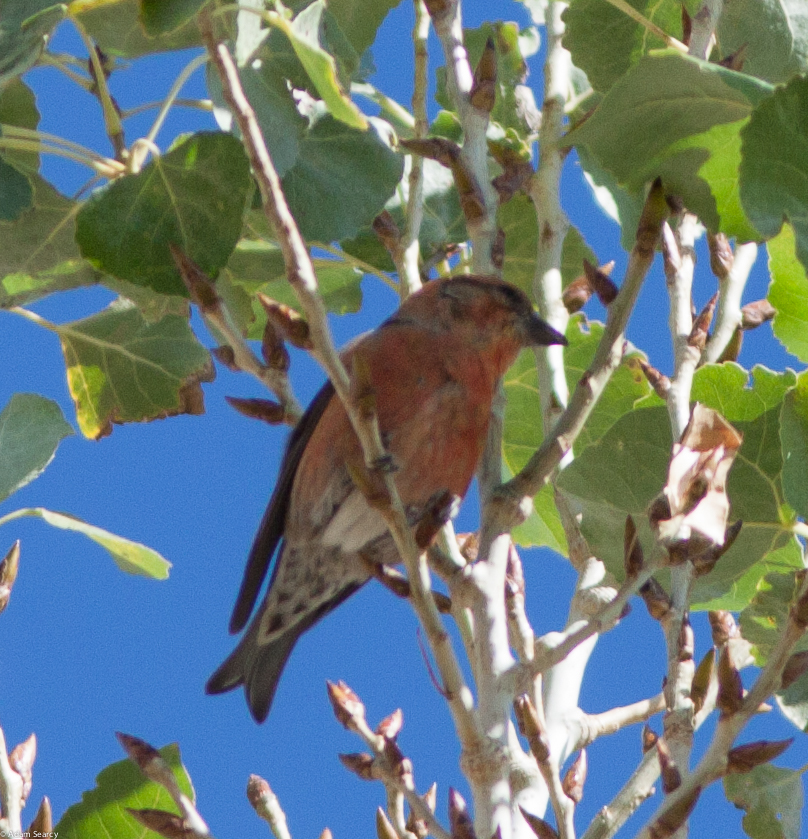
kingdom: Animalia
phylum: Chordata
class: Aves
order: Passeriformes
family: Fringillidae
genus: Loxia
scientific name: Loxia curvirostra
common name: Red crossbill
